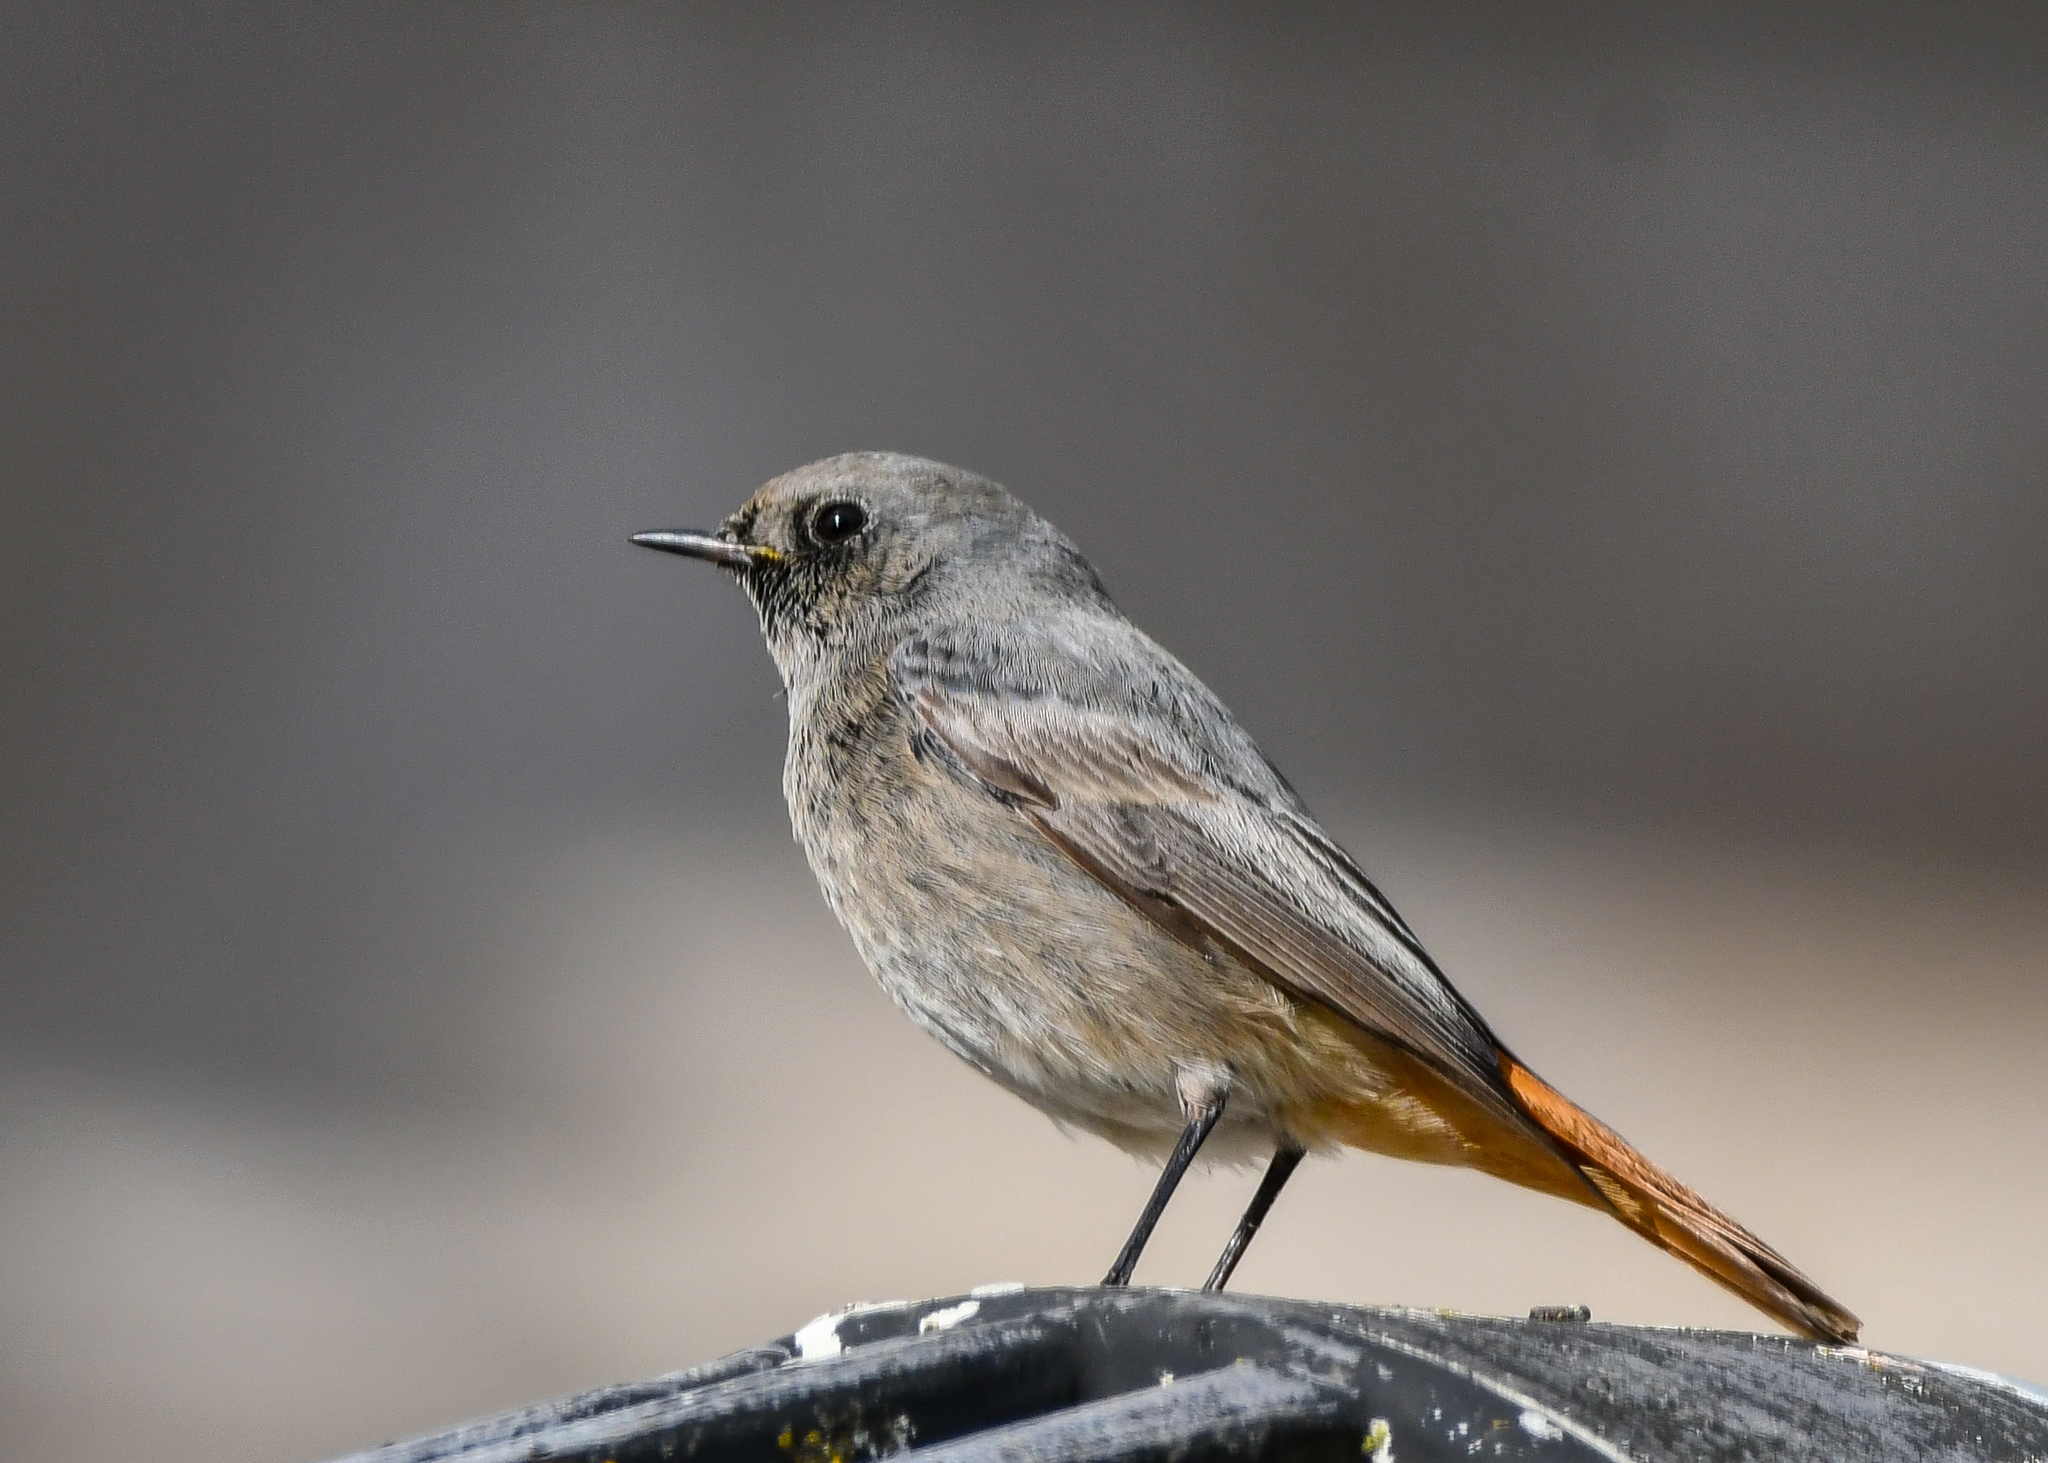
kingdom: Animalia
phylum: Chordata
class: Aves
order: Passeriformes
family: Muscicapidae
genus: Phoenicurus
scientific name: Phoenicurus ochruros
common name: Black redstart
